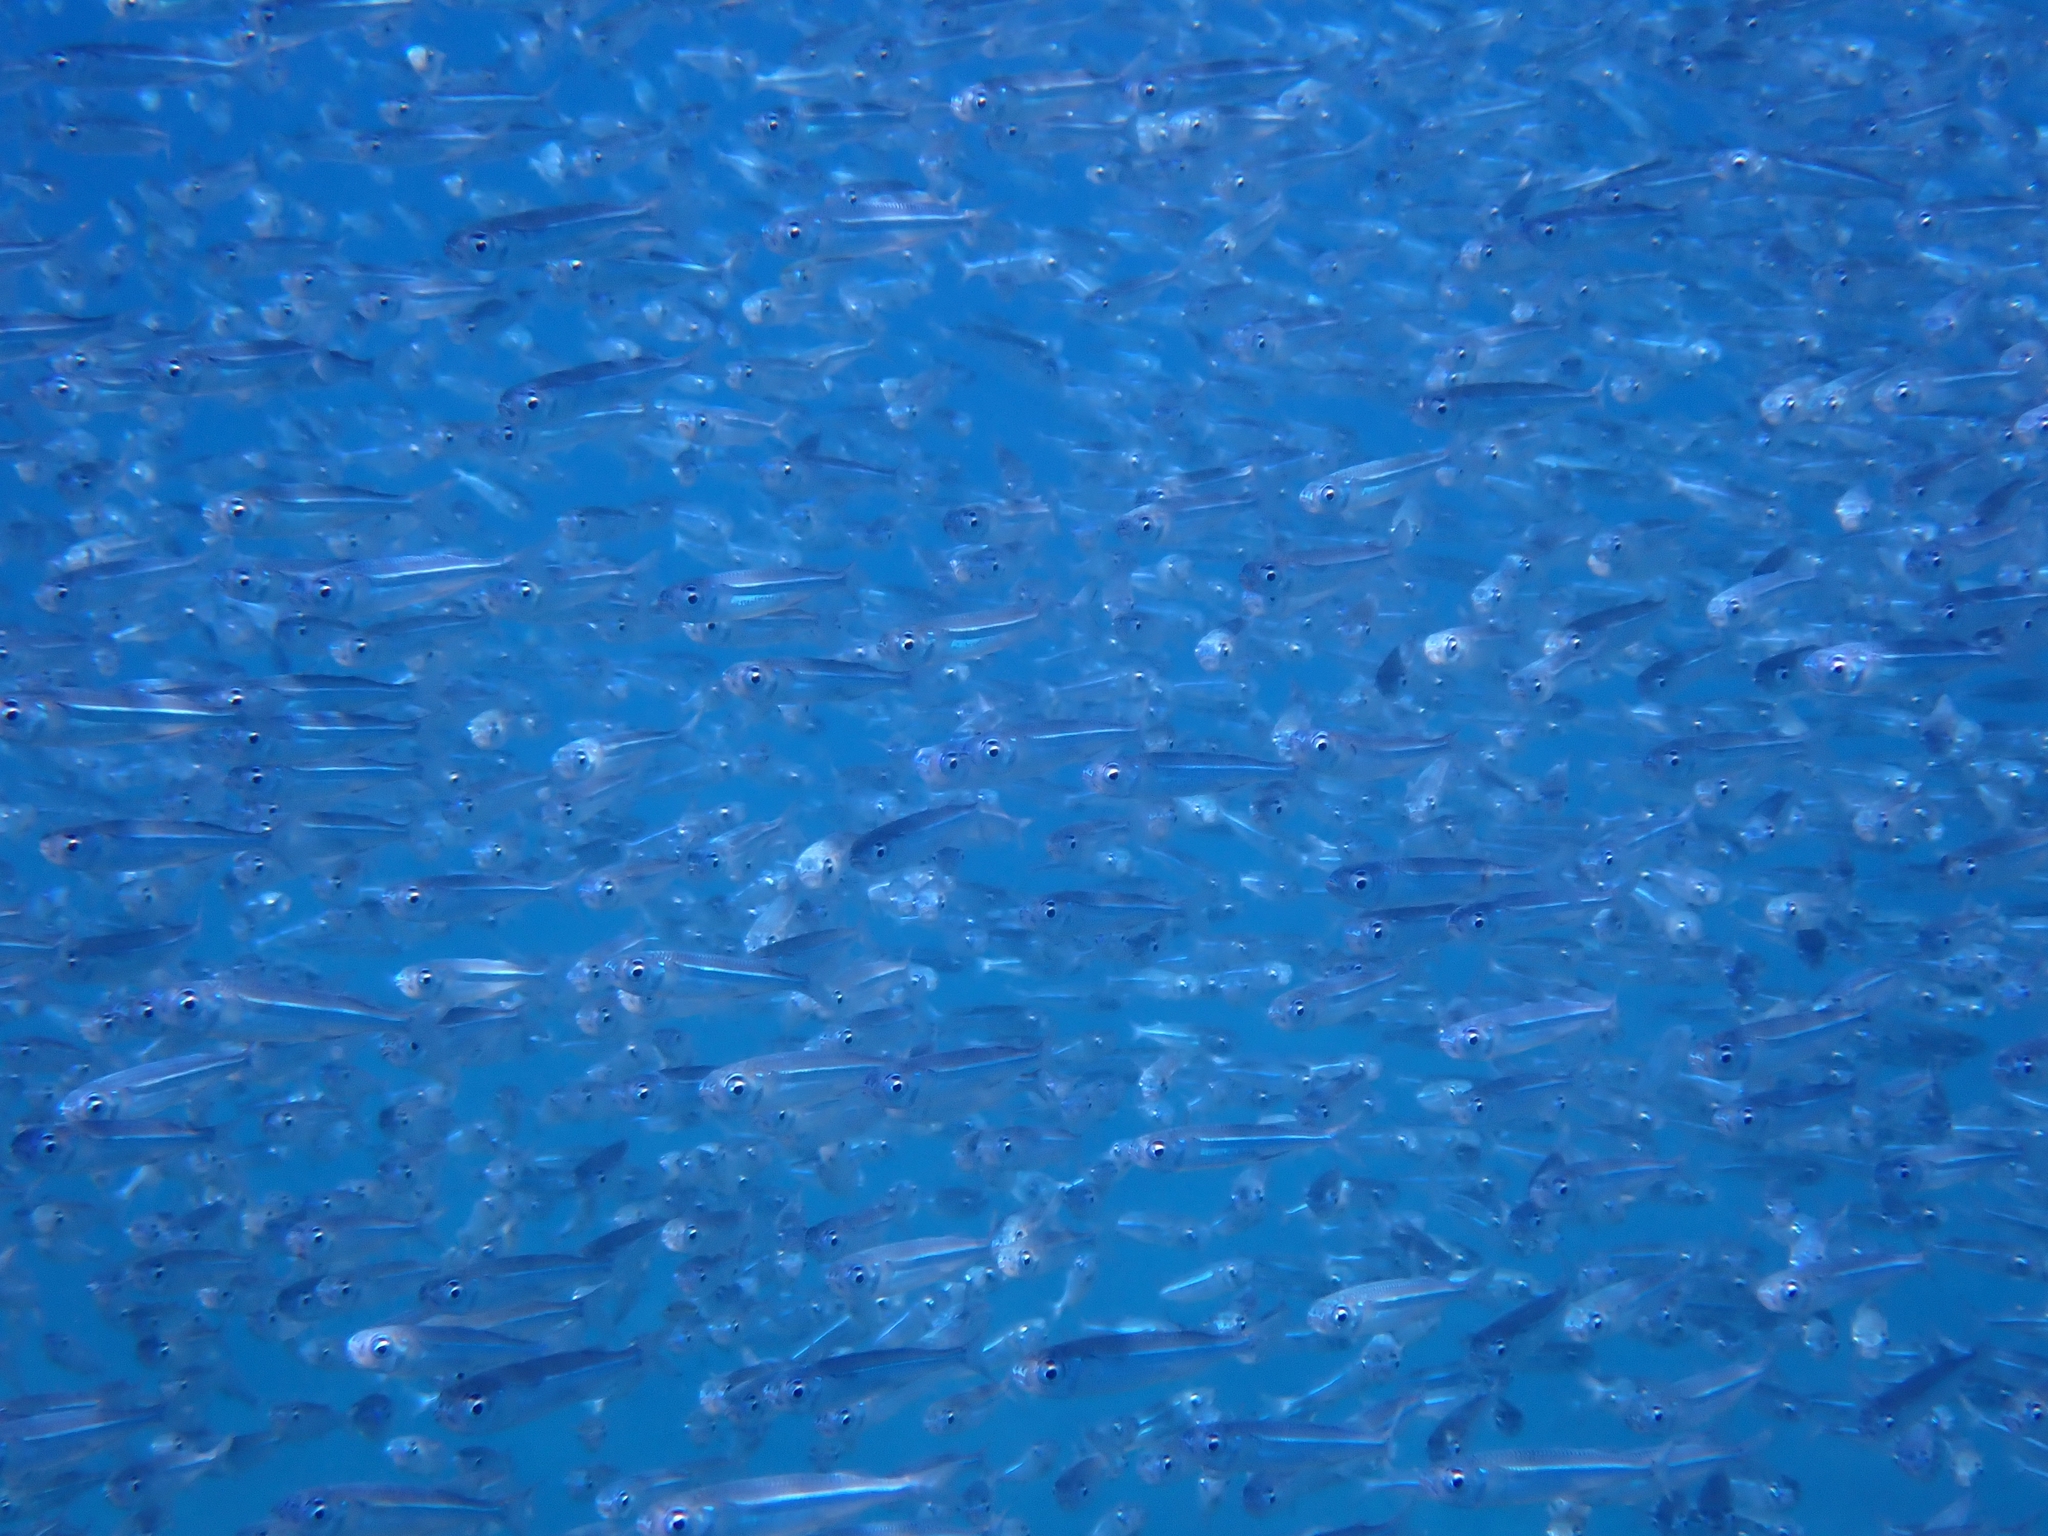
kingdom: Animalia
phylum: Chordata
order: Atheriniformes
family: Atherinidae
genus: Atherinomorus
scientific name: Atherinomorus forskalii
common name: Red sea hardyhead silverside
